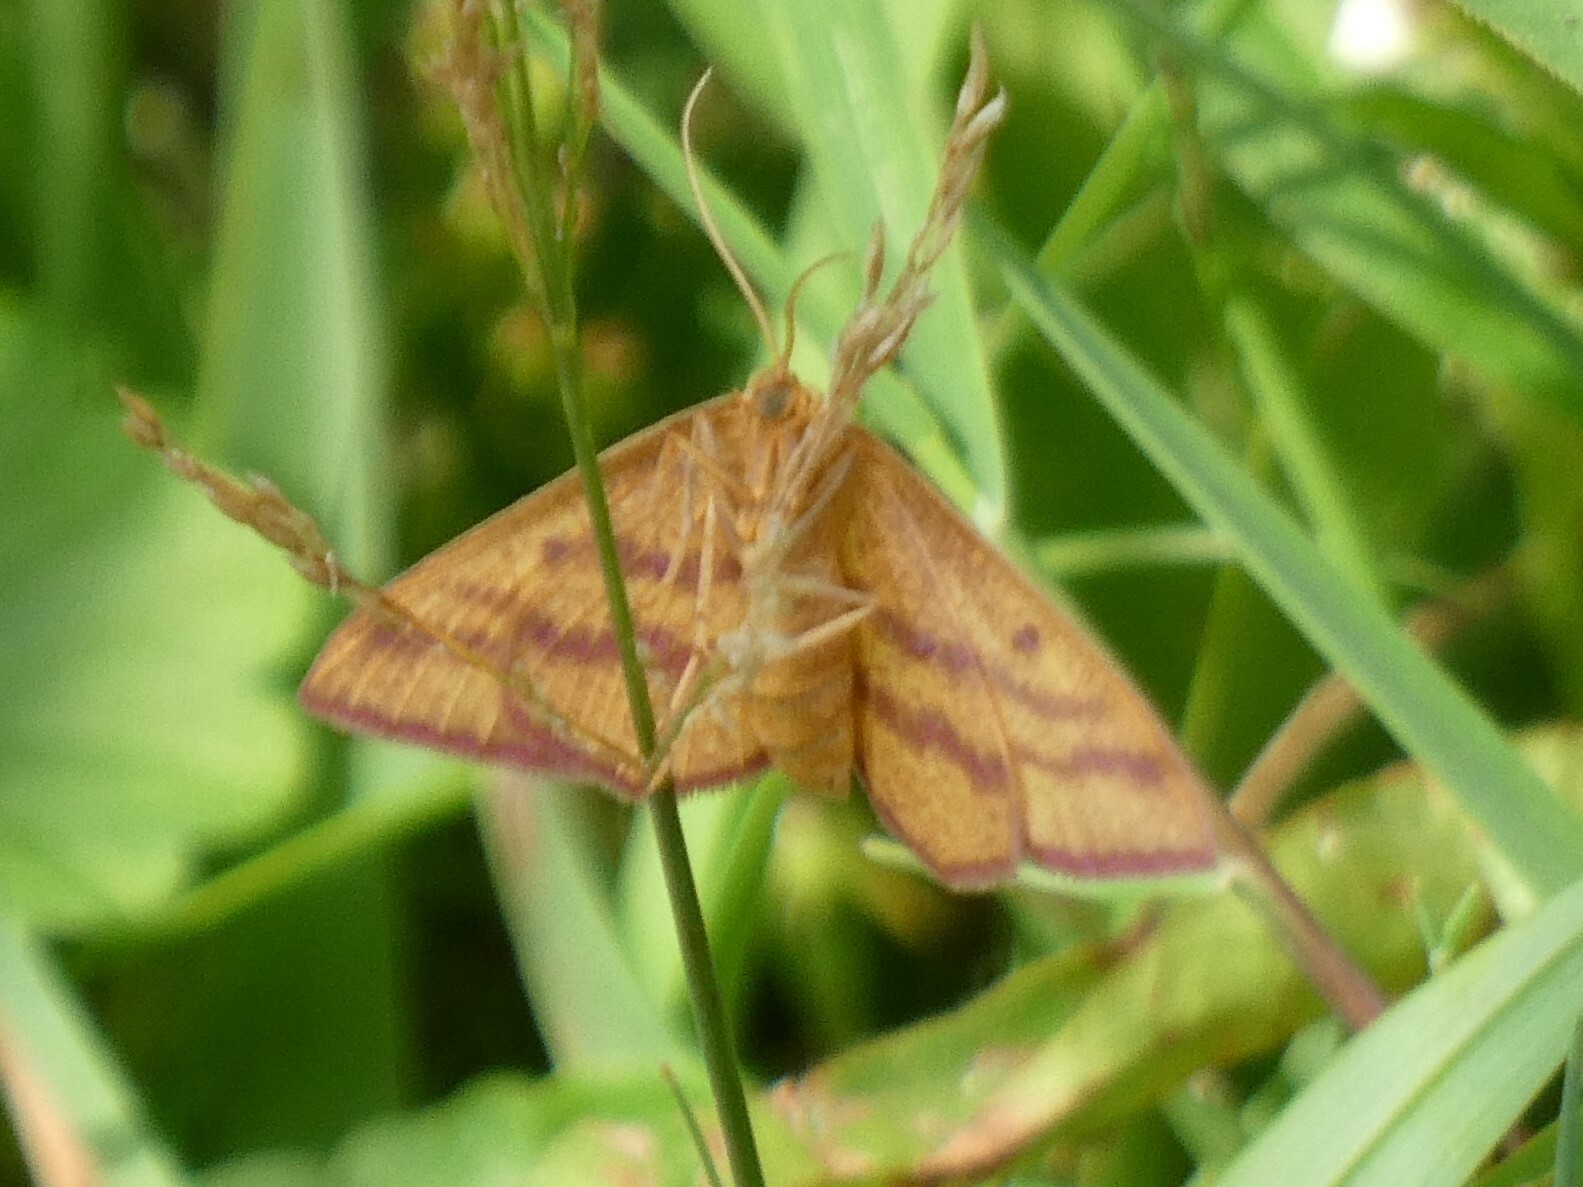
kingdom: Animalia
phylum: Arthropoda
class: Insecta
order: Lepidoptera
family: Geometridae
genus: Haematopis
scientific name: Haematopis grataria
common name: Chickweed geometer
